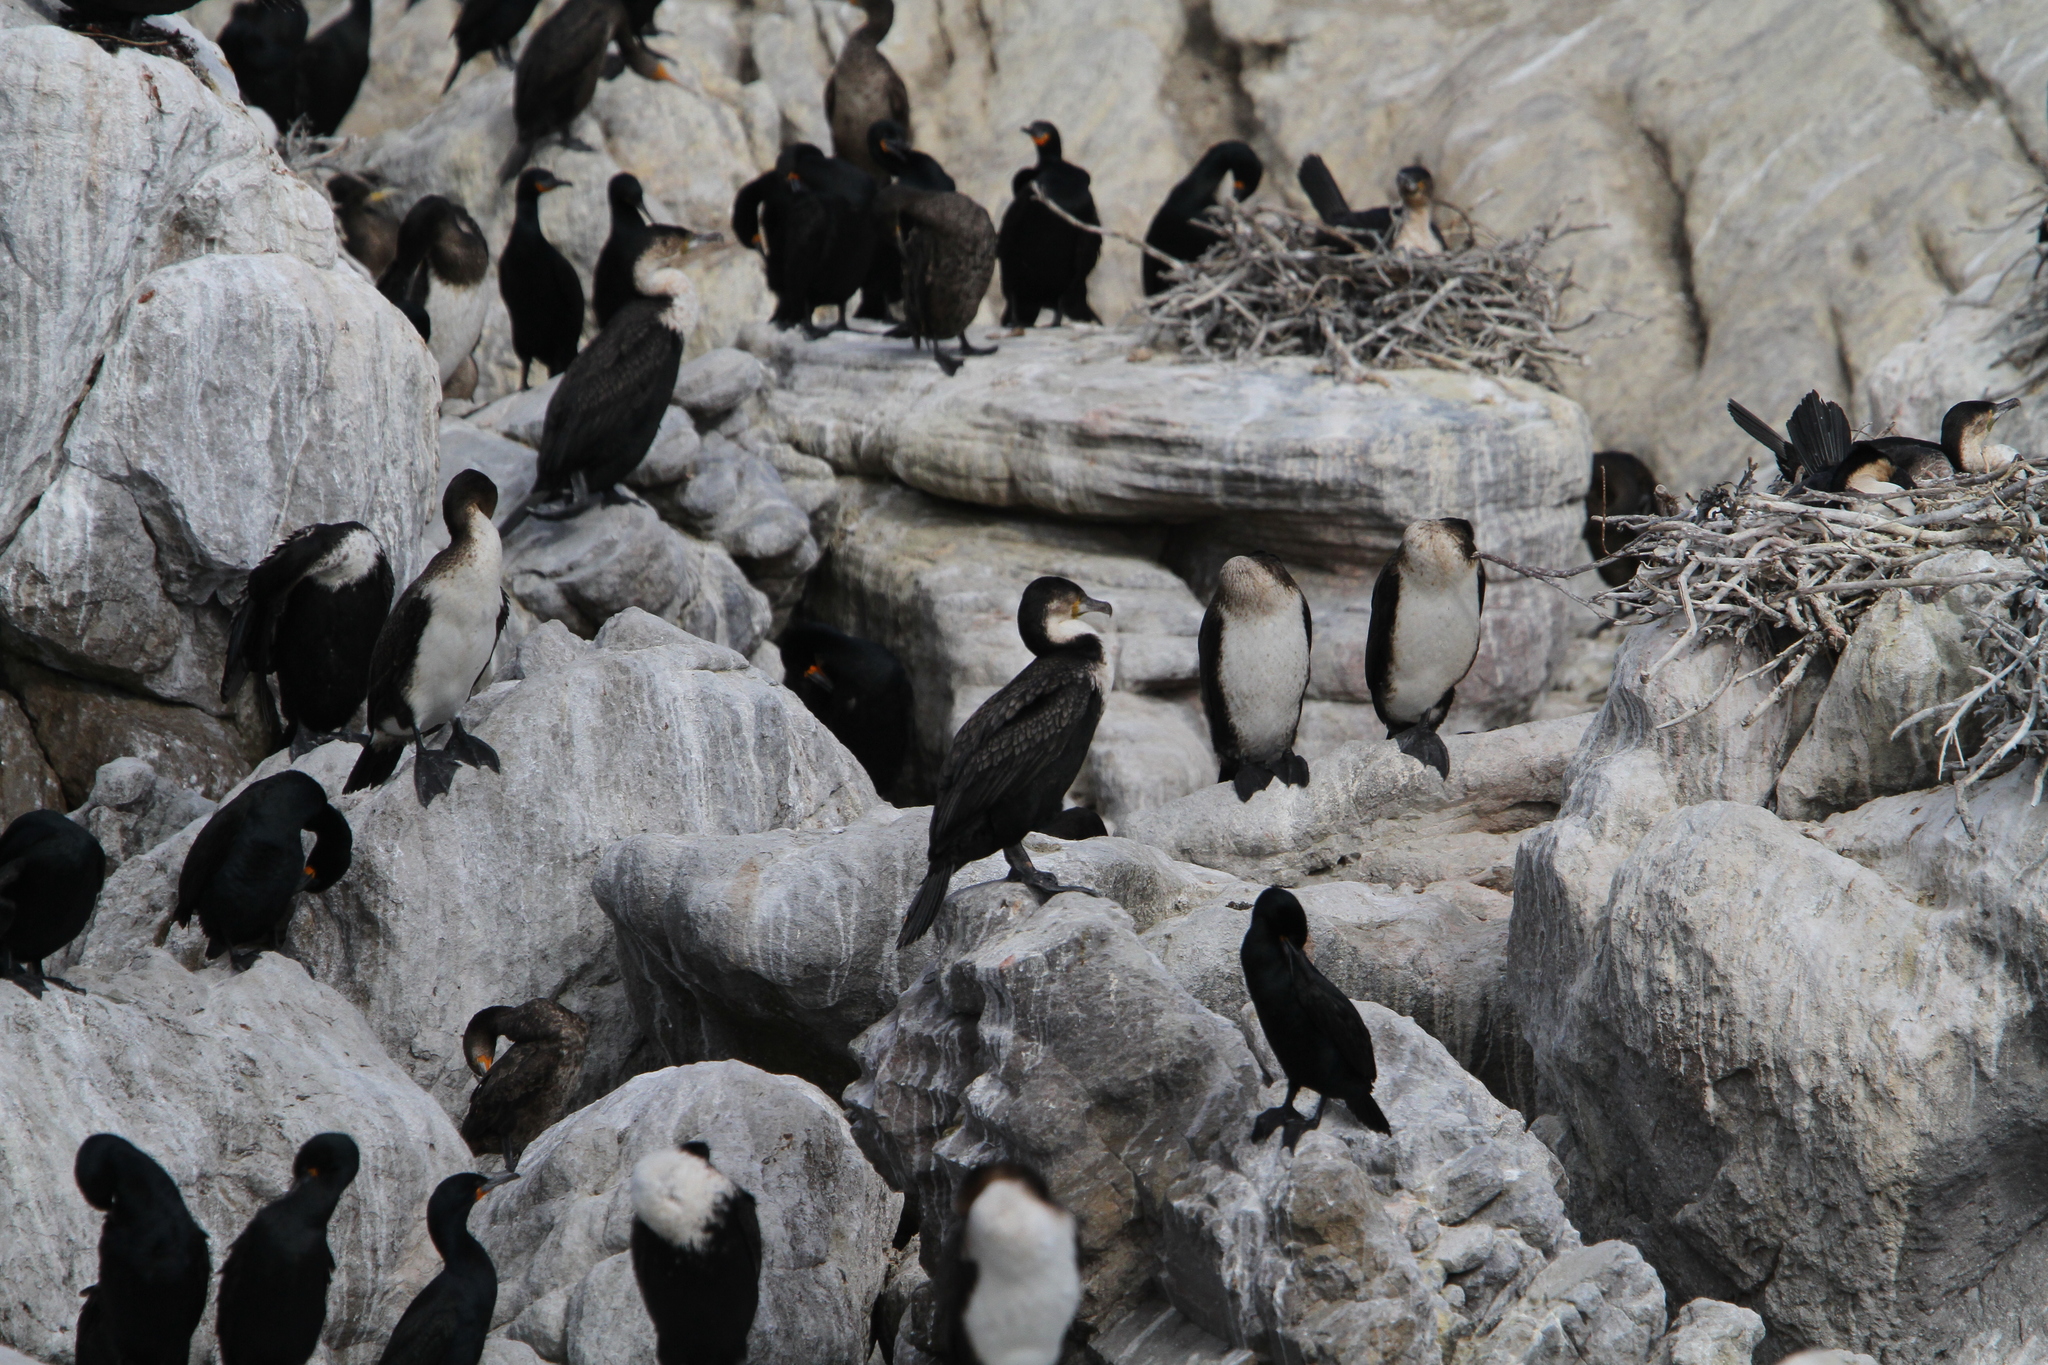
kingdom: Animalia
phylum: Chordata
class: Aves
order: Suliformes
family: Phalacrocoracidae
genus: Phalacrocorax
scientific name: Phalacrocorax carbo
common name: Great cormorant
